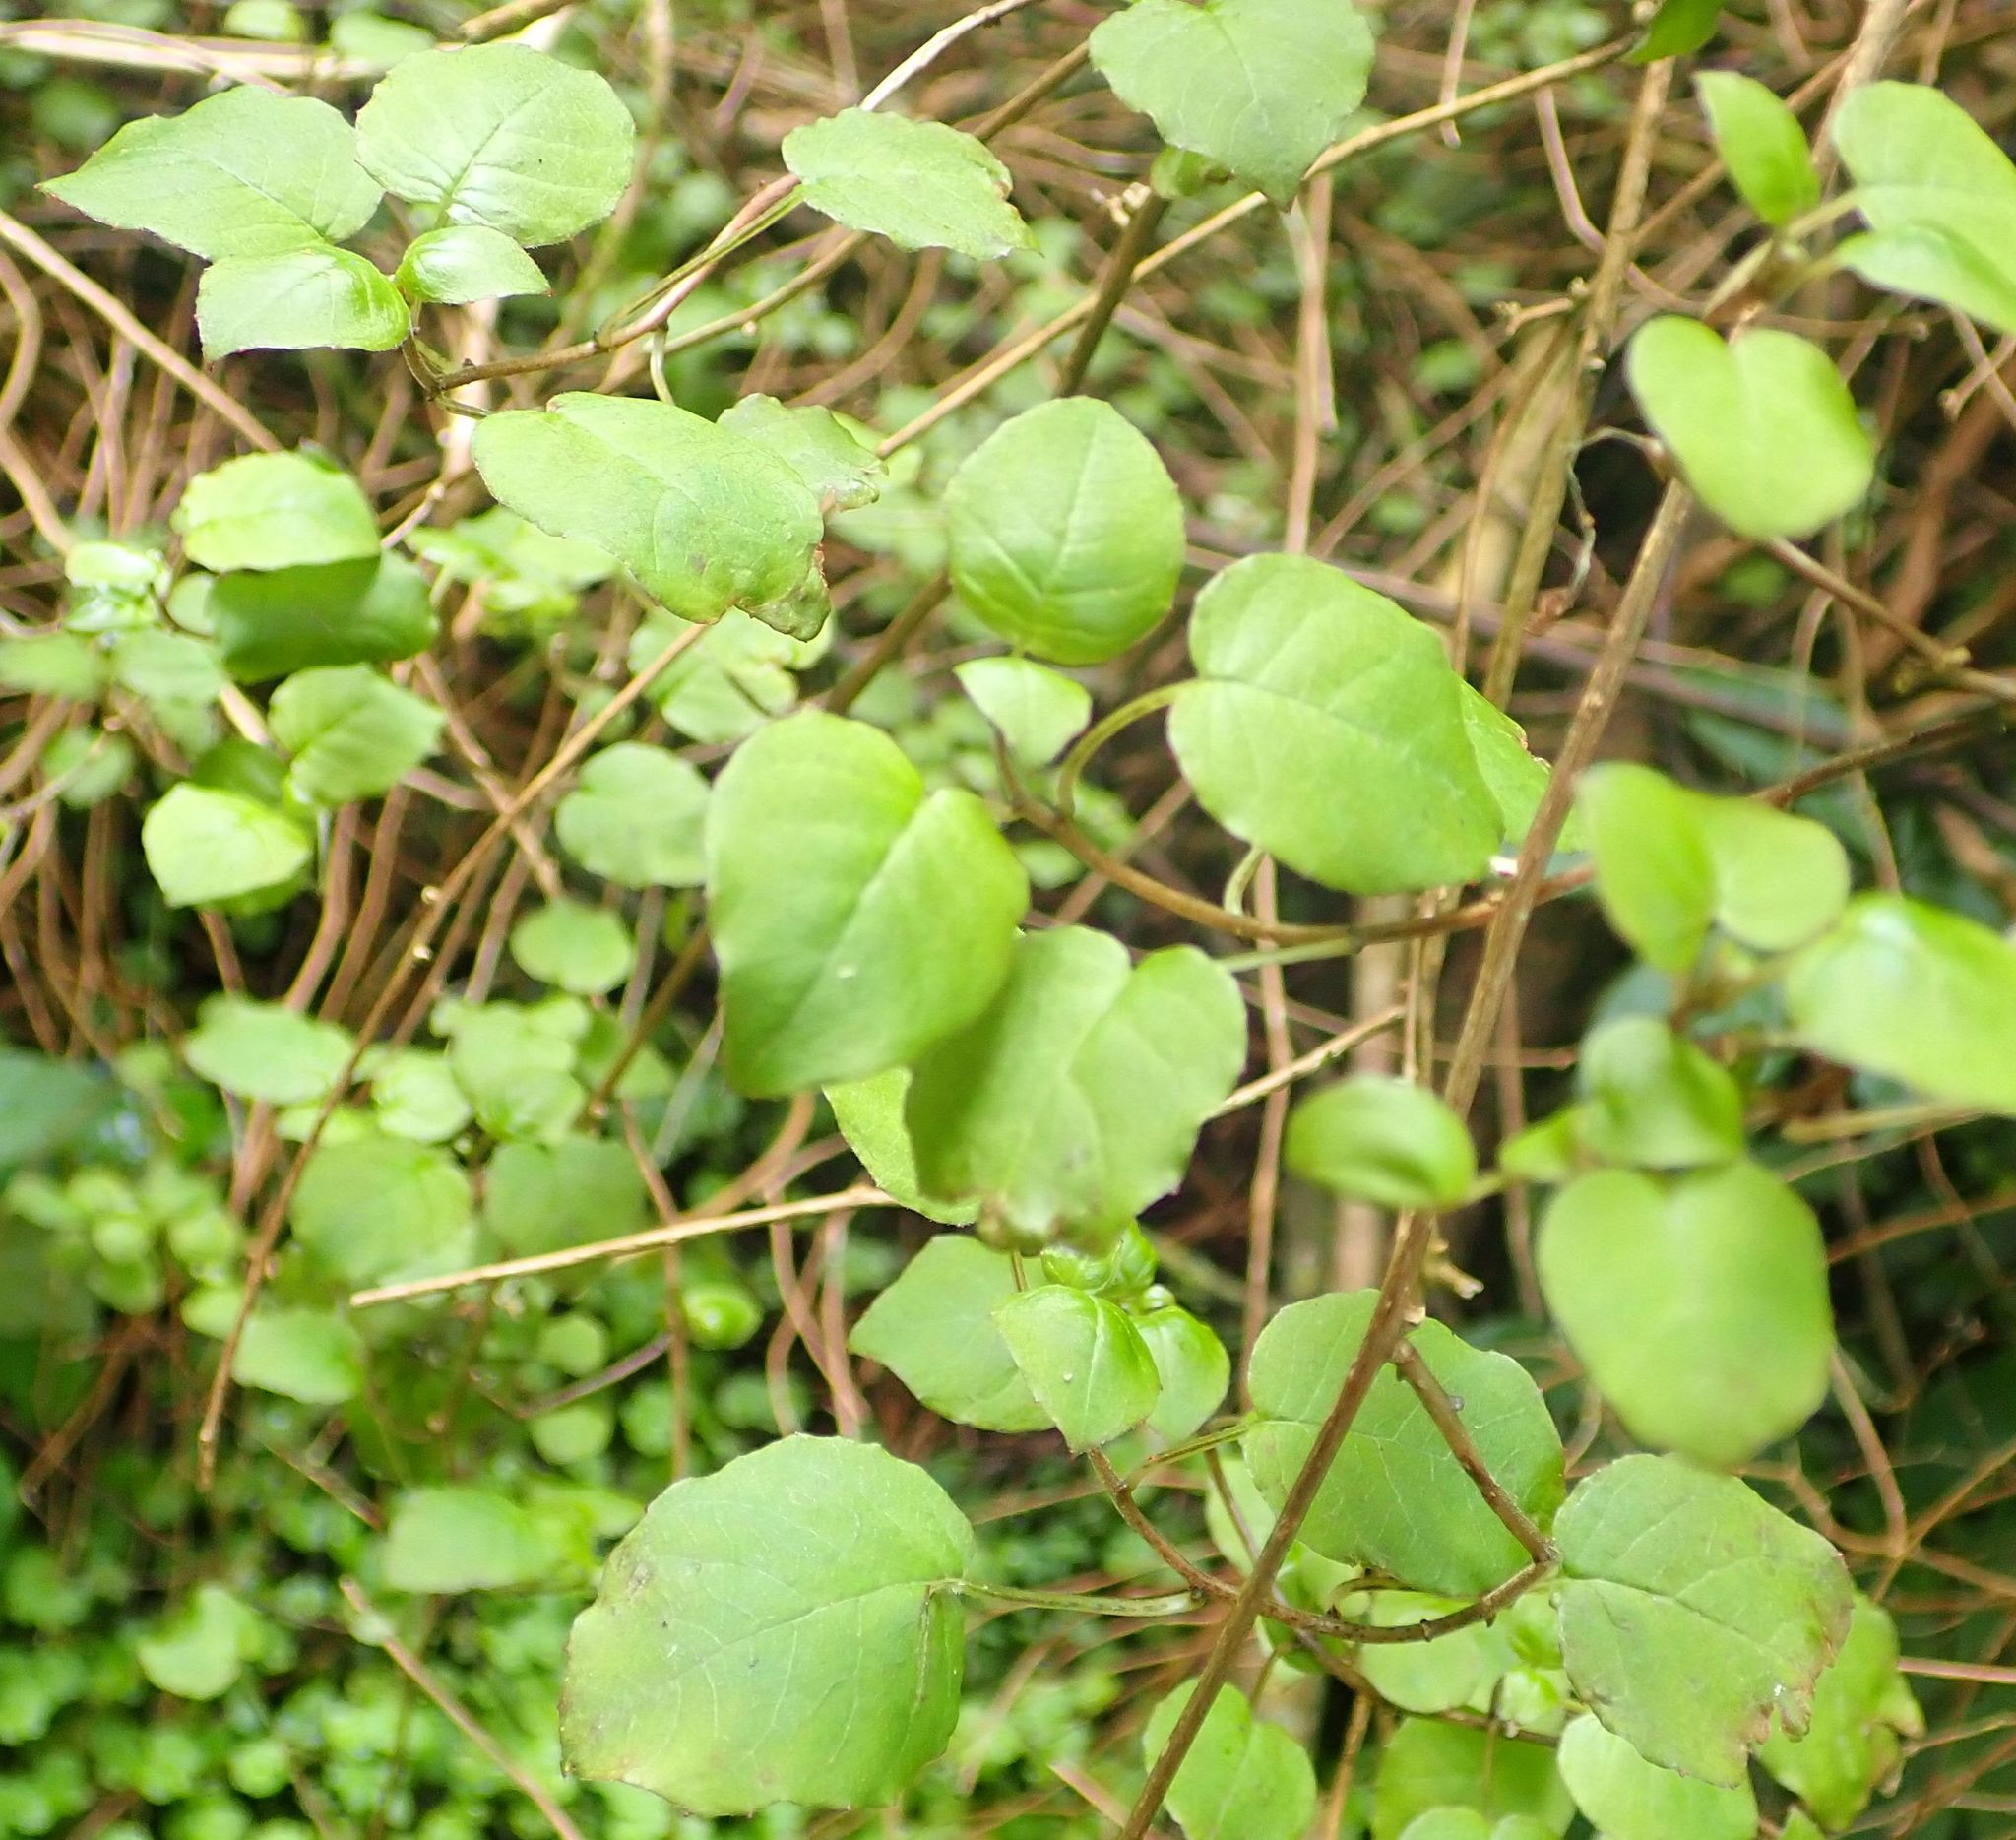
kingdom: Plantae
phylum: Tracheophyta
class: Magnoliopsida
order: Myrtales
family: Onagraceae
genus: Fuchsia
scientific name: Fuchsia perscandens
